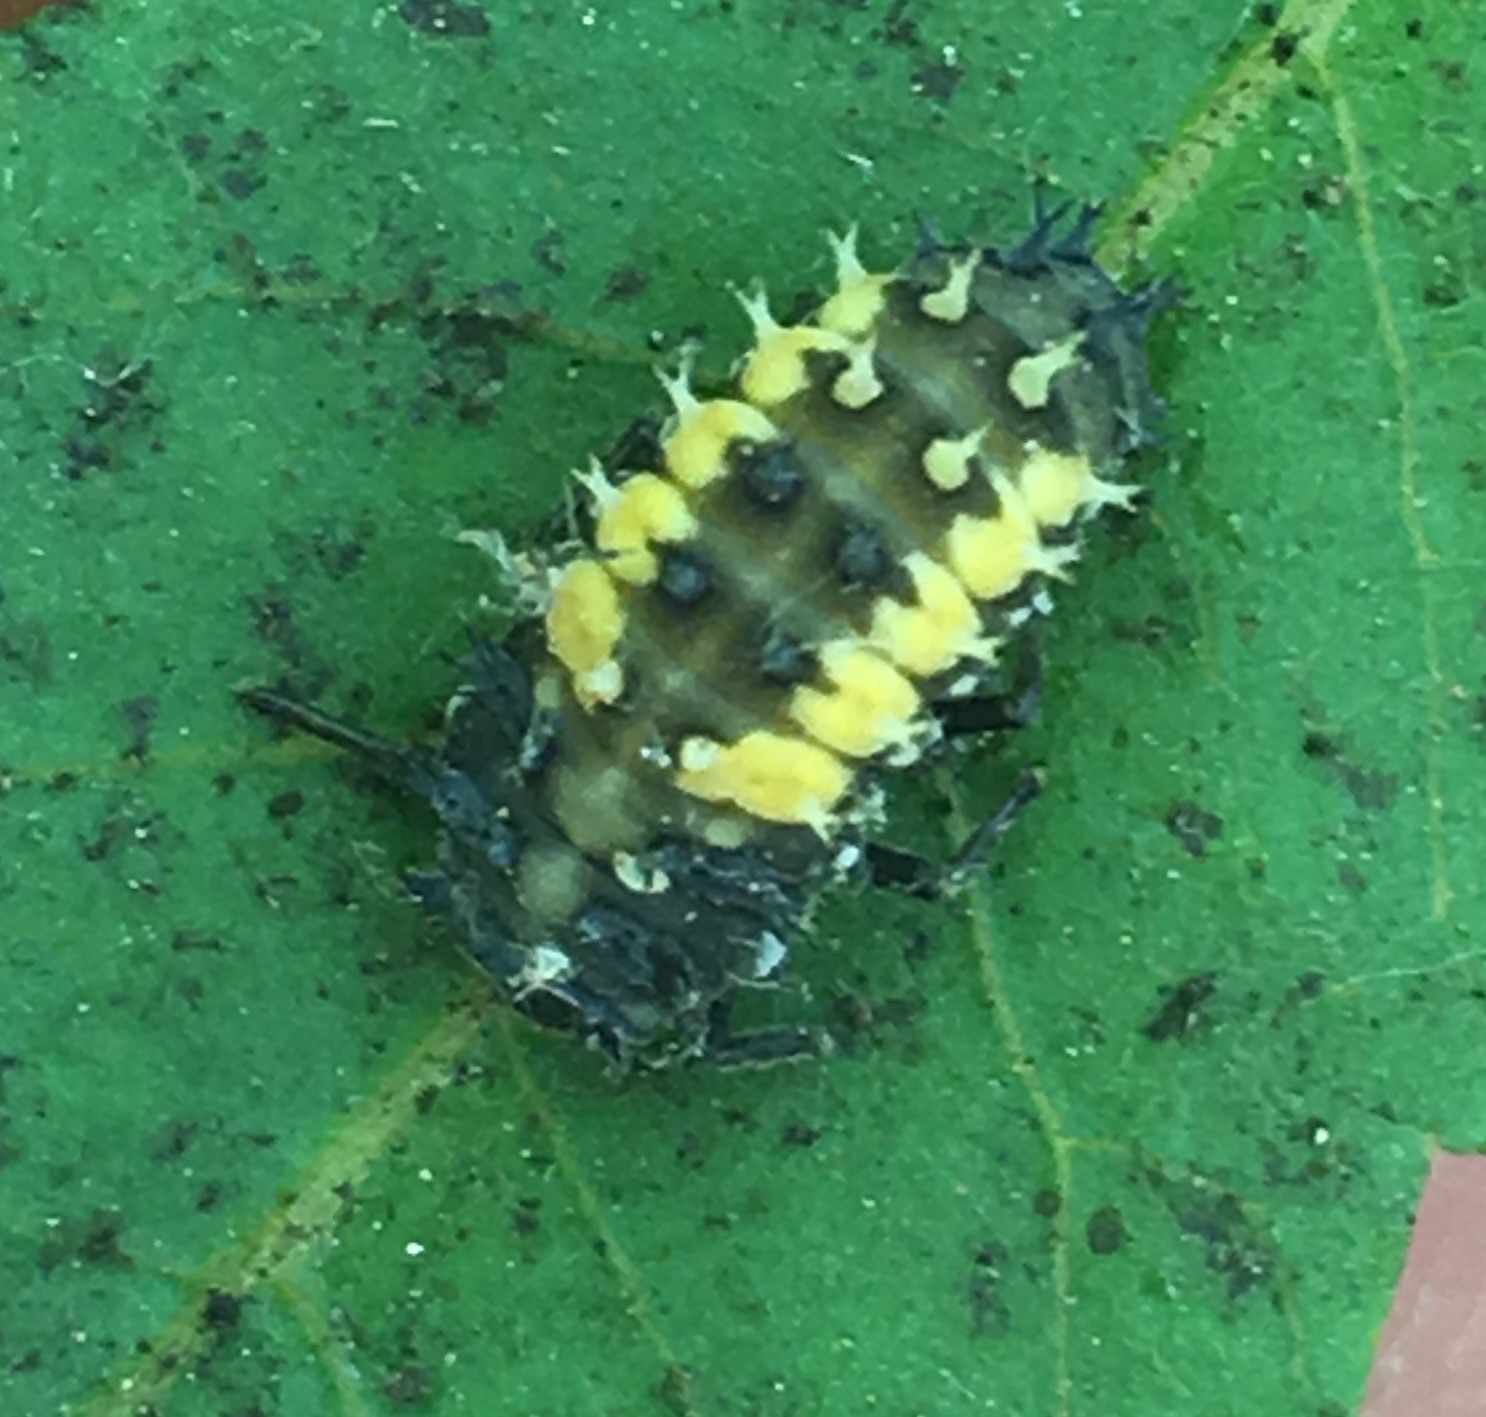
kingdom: Animalia
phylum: Arthropoda
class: Insecta
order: Coleoptera
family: Coccinellidae
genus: Harmonia
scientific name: Harmonia axyridis
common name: Harlequin ladybird
